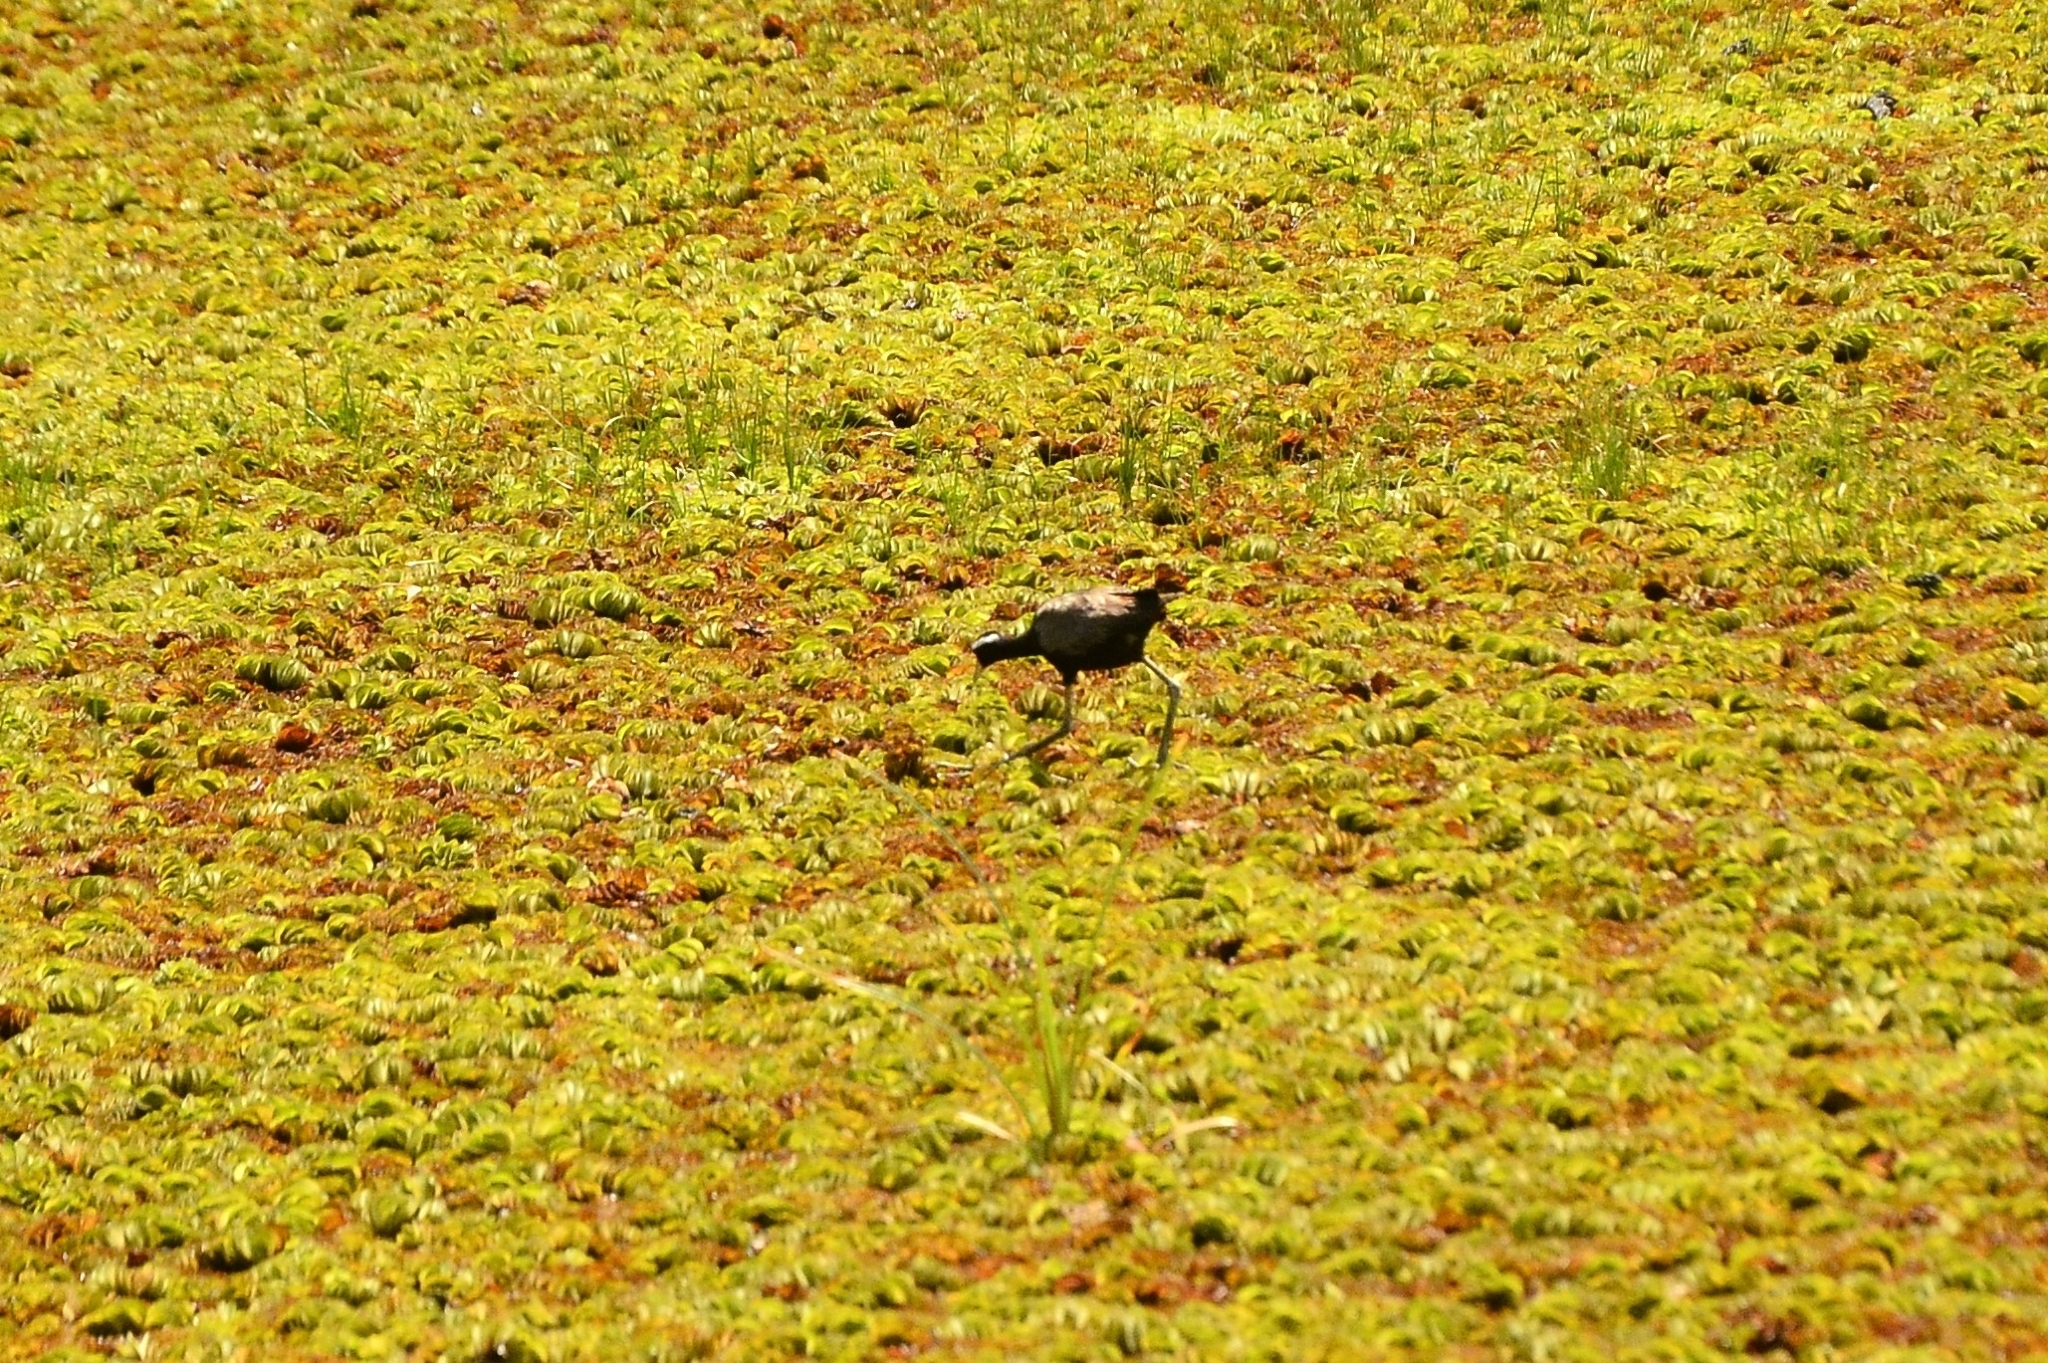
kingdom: Animalia
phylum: Chordata
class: Aves
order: Charadriiformes
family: Jacanidae
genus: Metopidius
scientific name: Metopidius indicus
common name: Bronze-winged jacana
